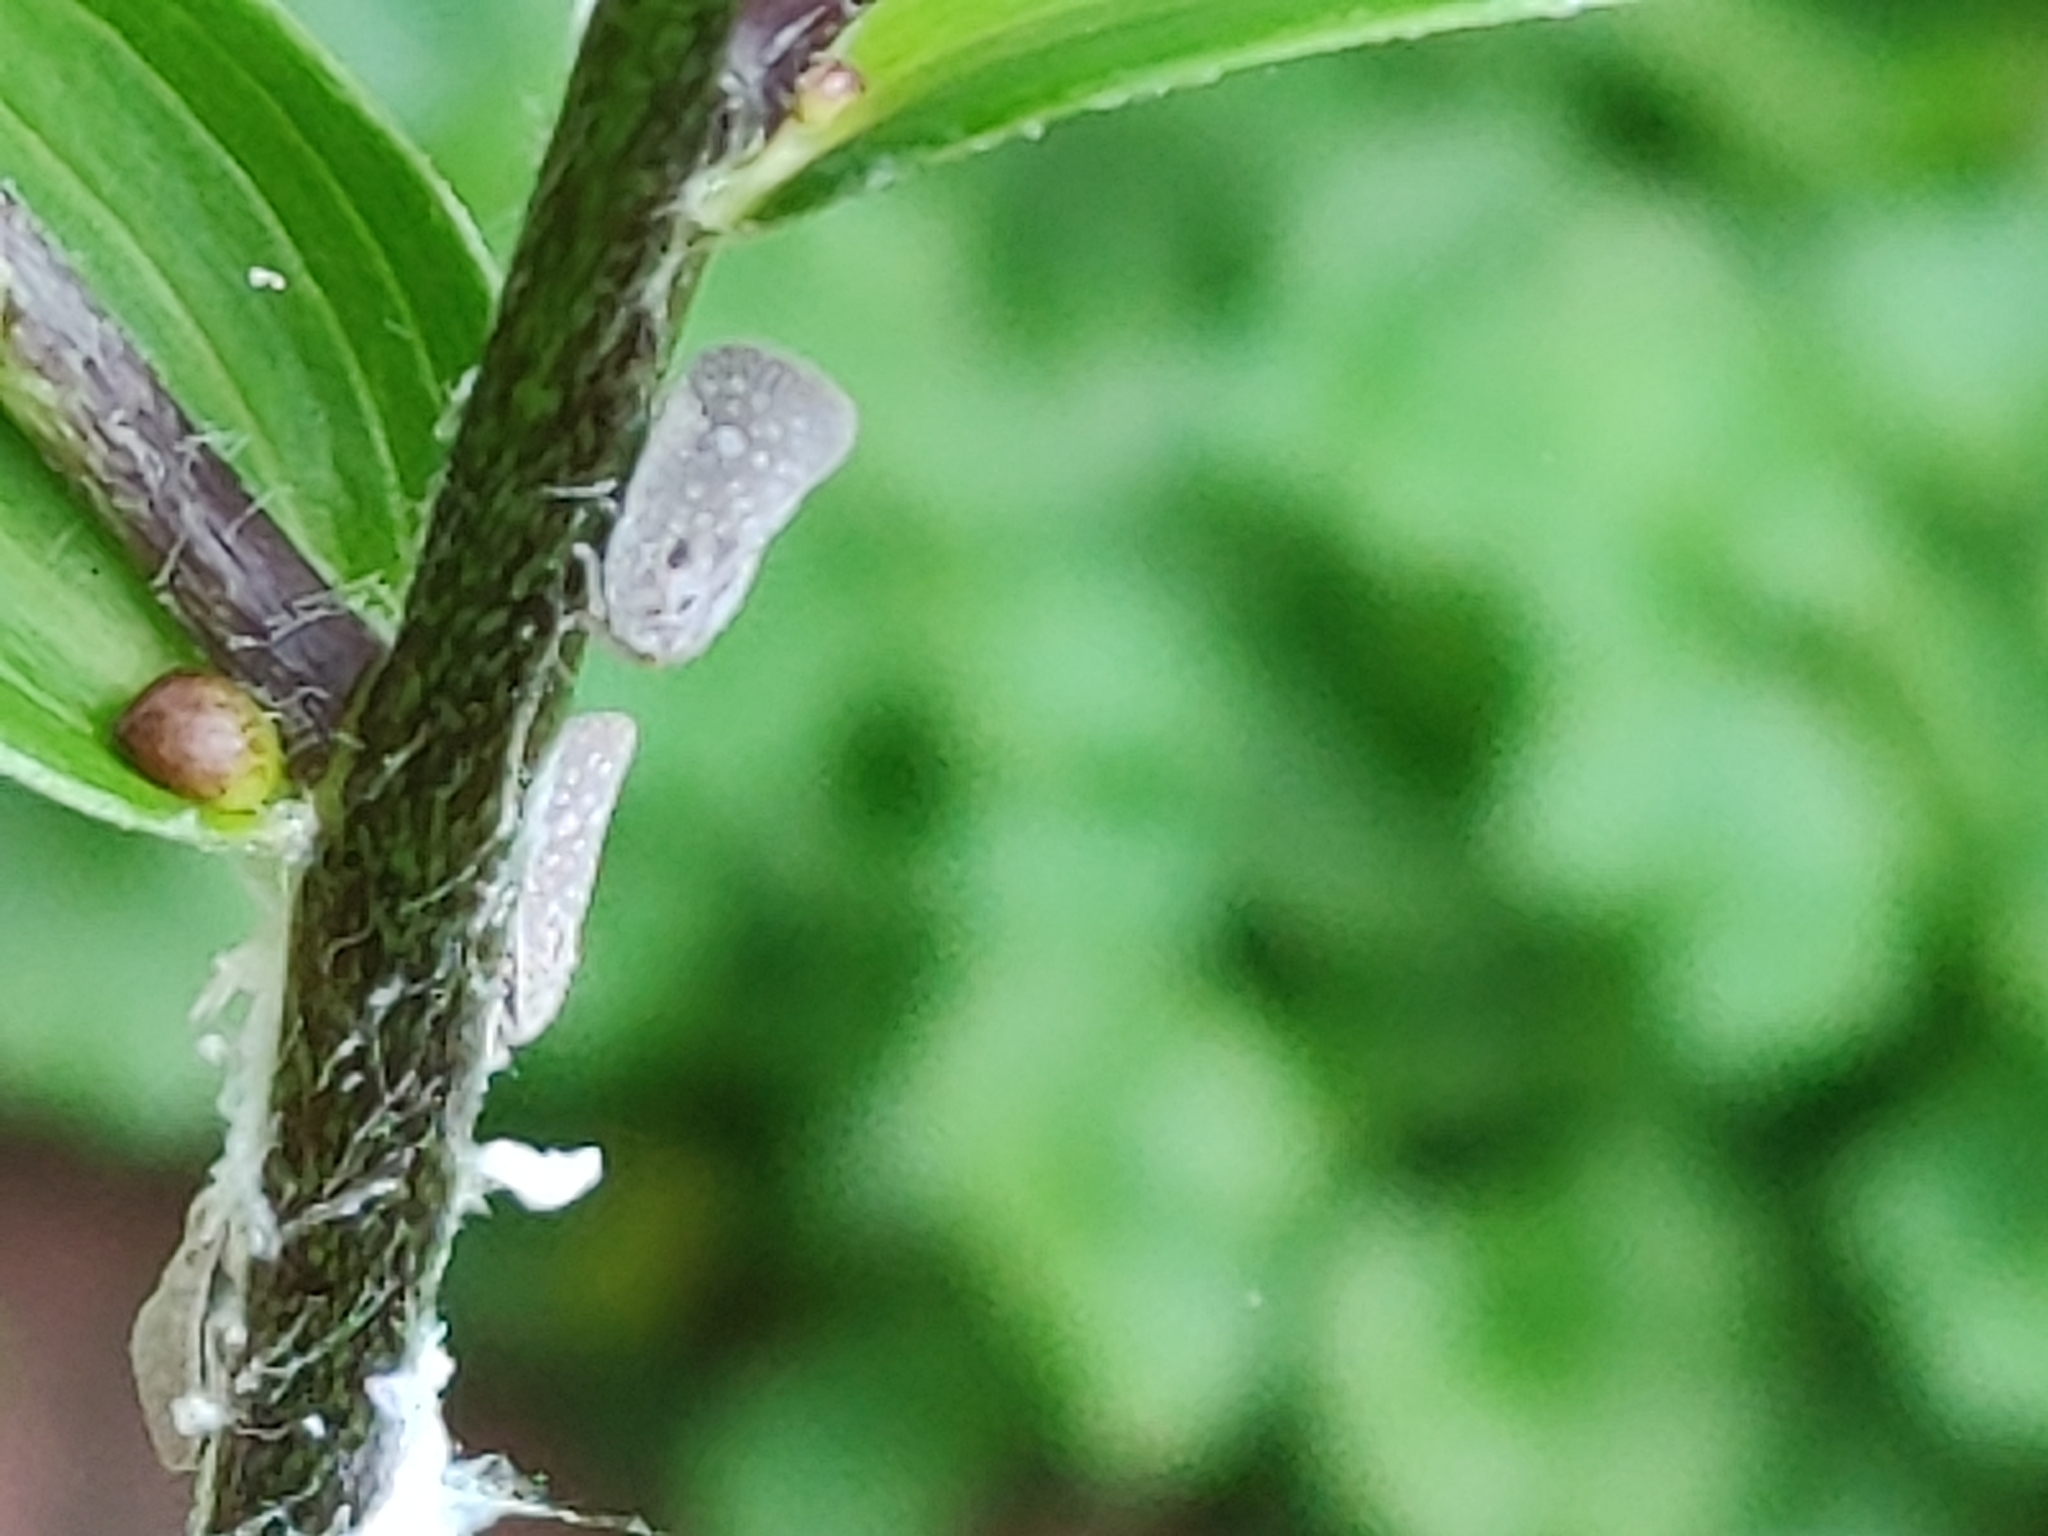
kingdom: Animalia
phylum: Arthropoda
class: Insecta
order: Hemiptera
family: Flatidae
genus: Metcalfa
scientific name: Metcalfa pruinosa
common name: Citrus flatid planthopper
